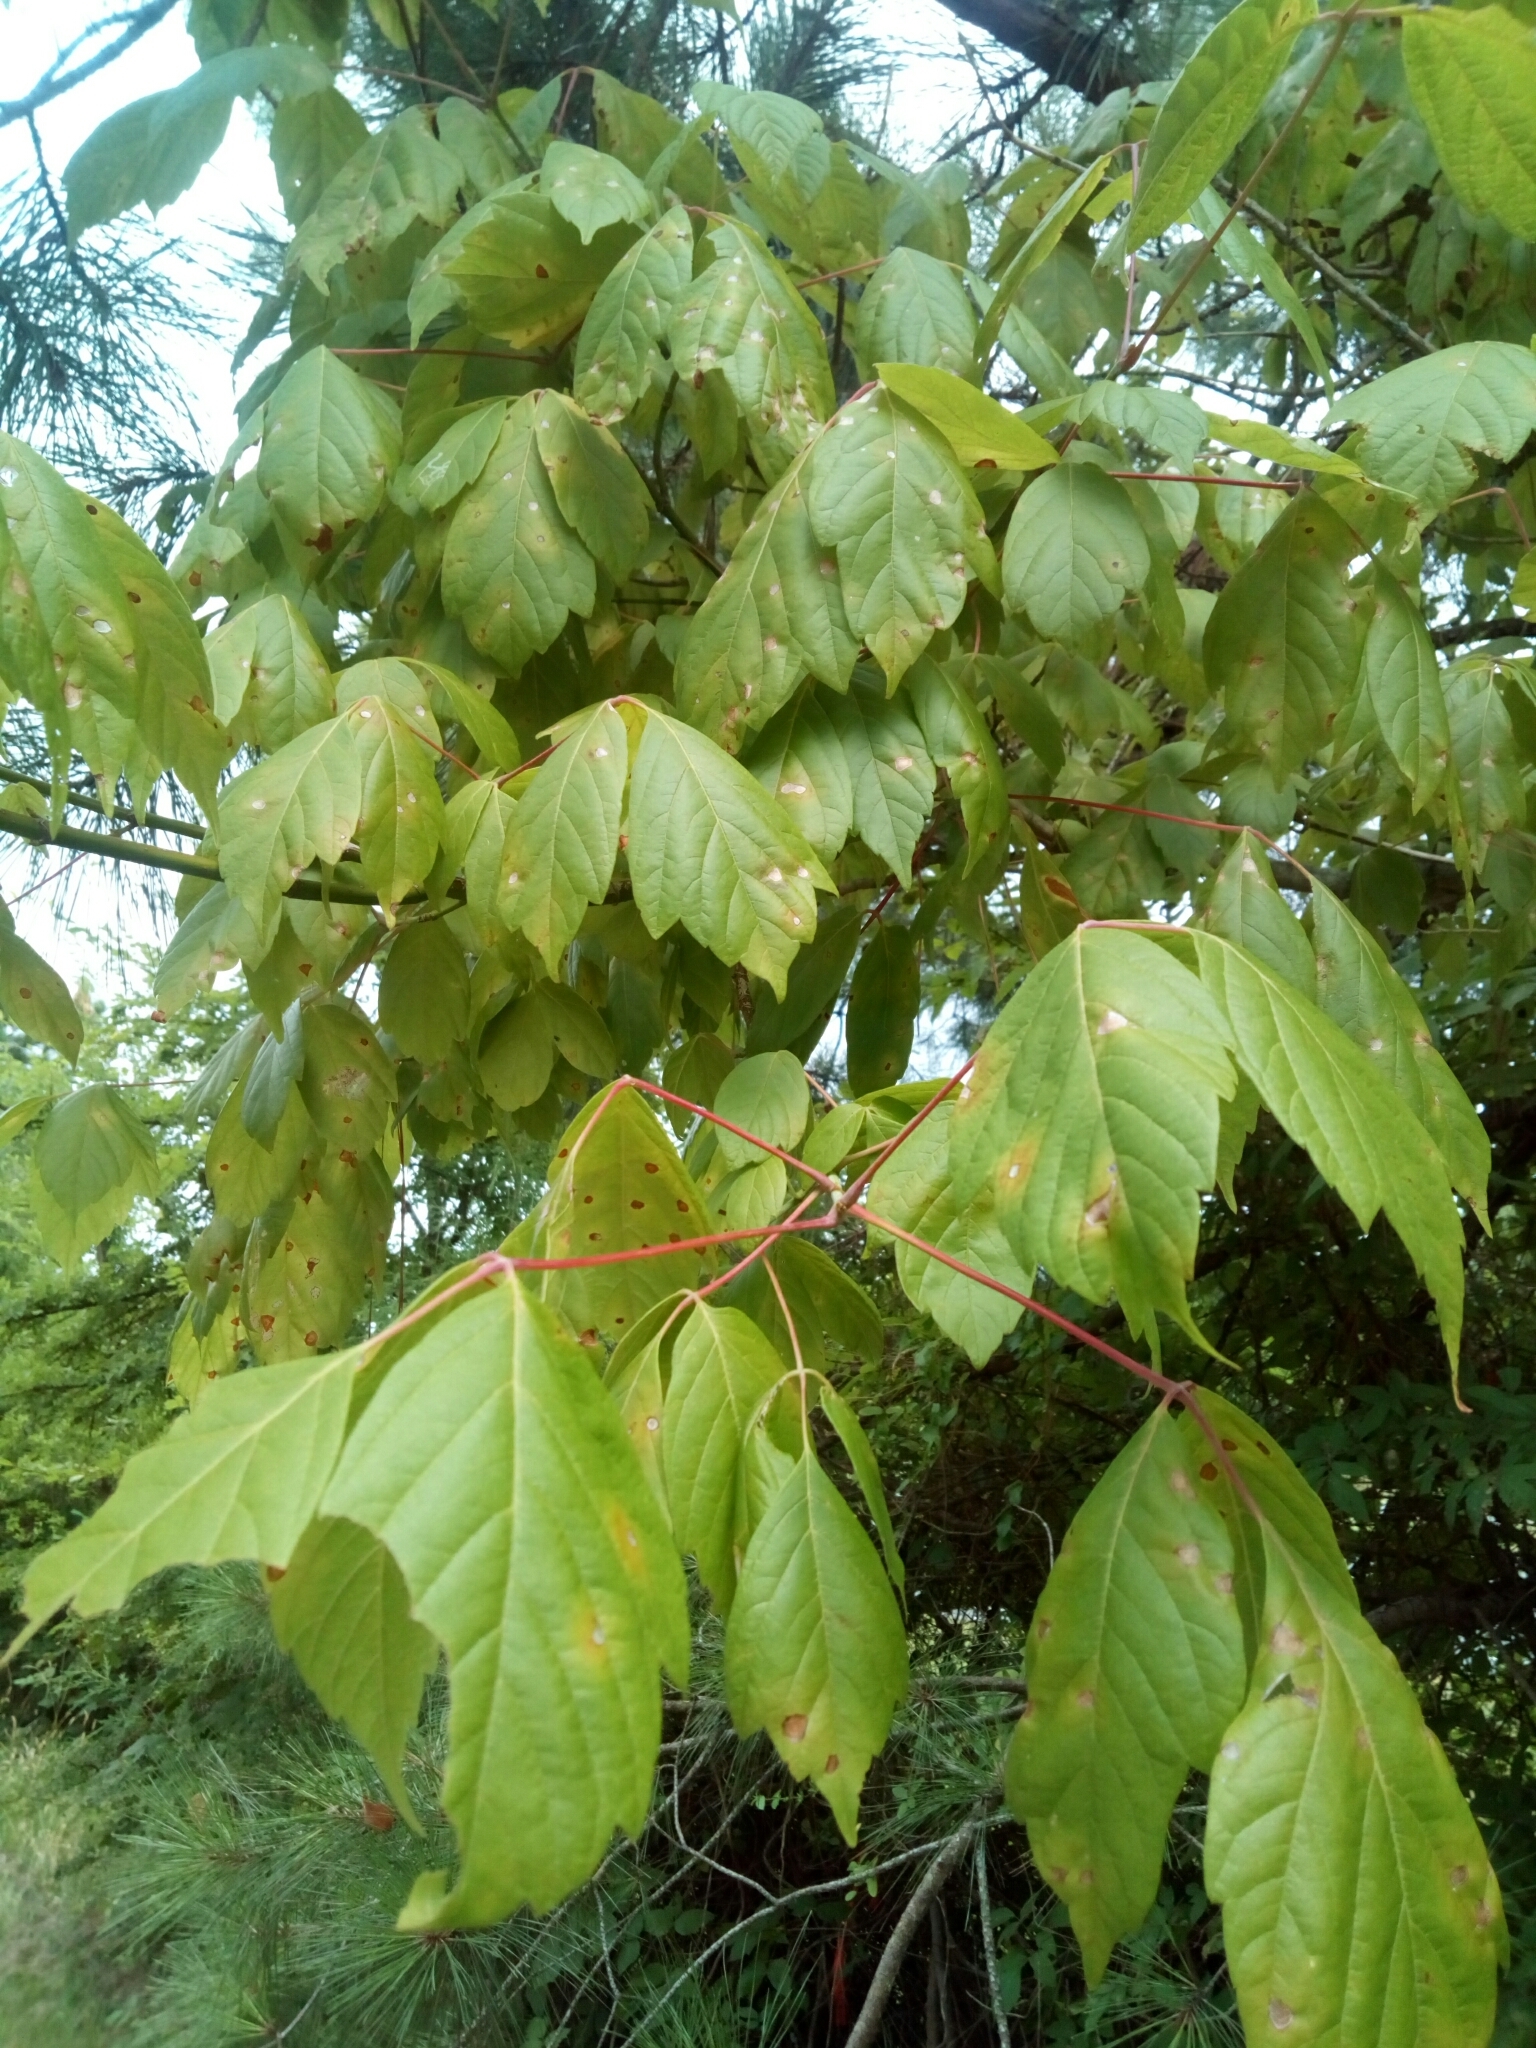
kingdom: Plantae
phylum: Tracheophyta
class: Magnoliopsida
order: Sapindales
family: Sapindaceae
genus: Acer
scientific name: Acer negundo
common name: Ashleaf maple
